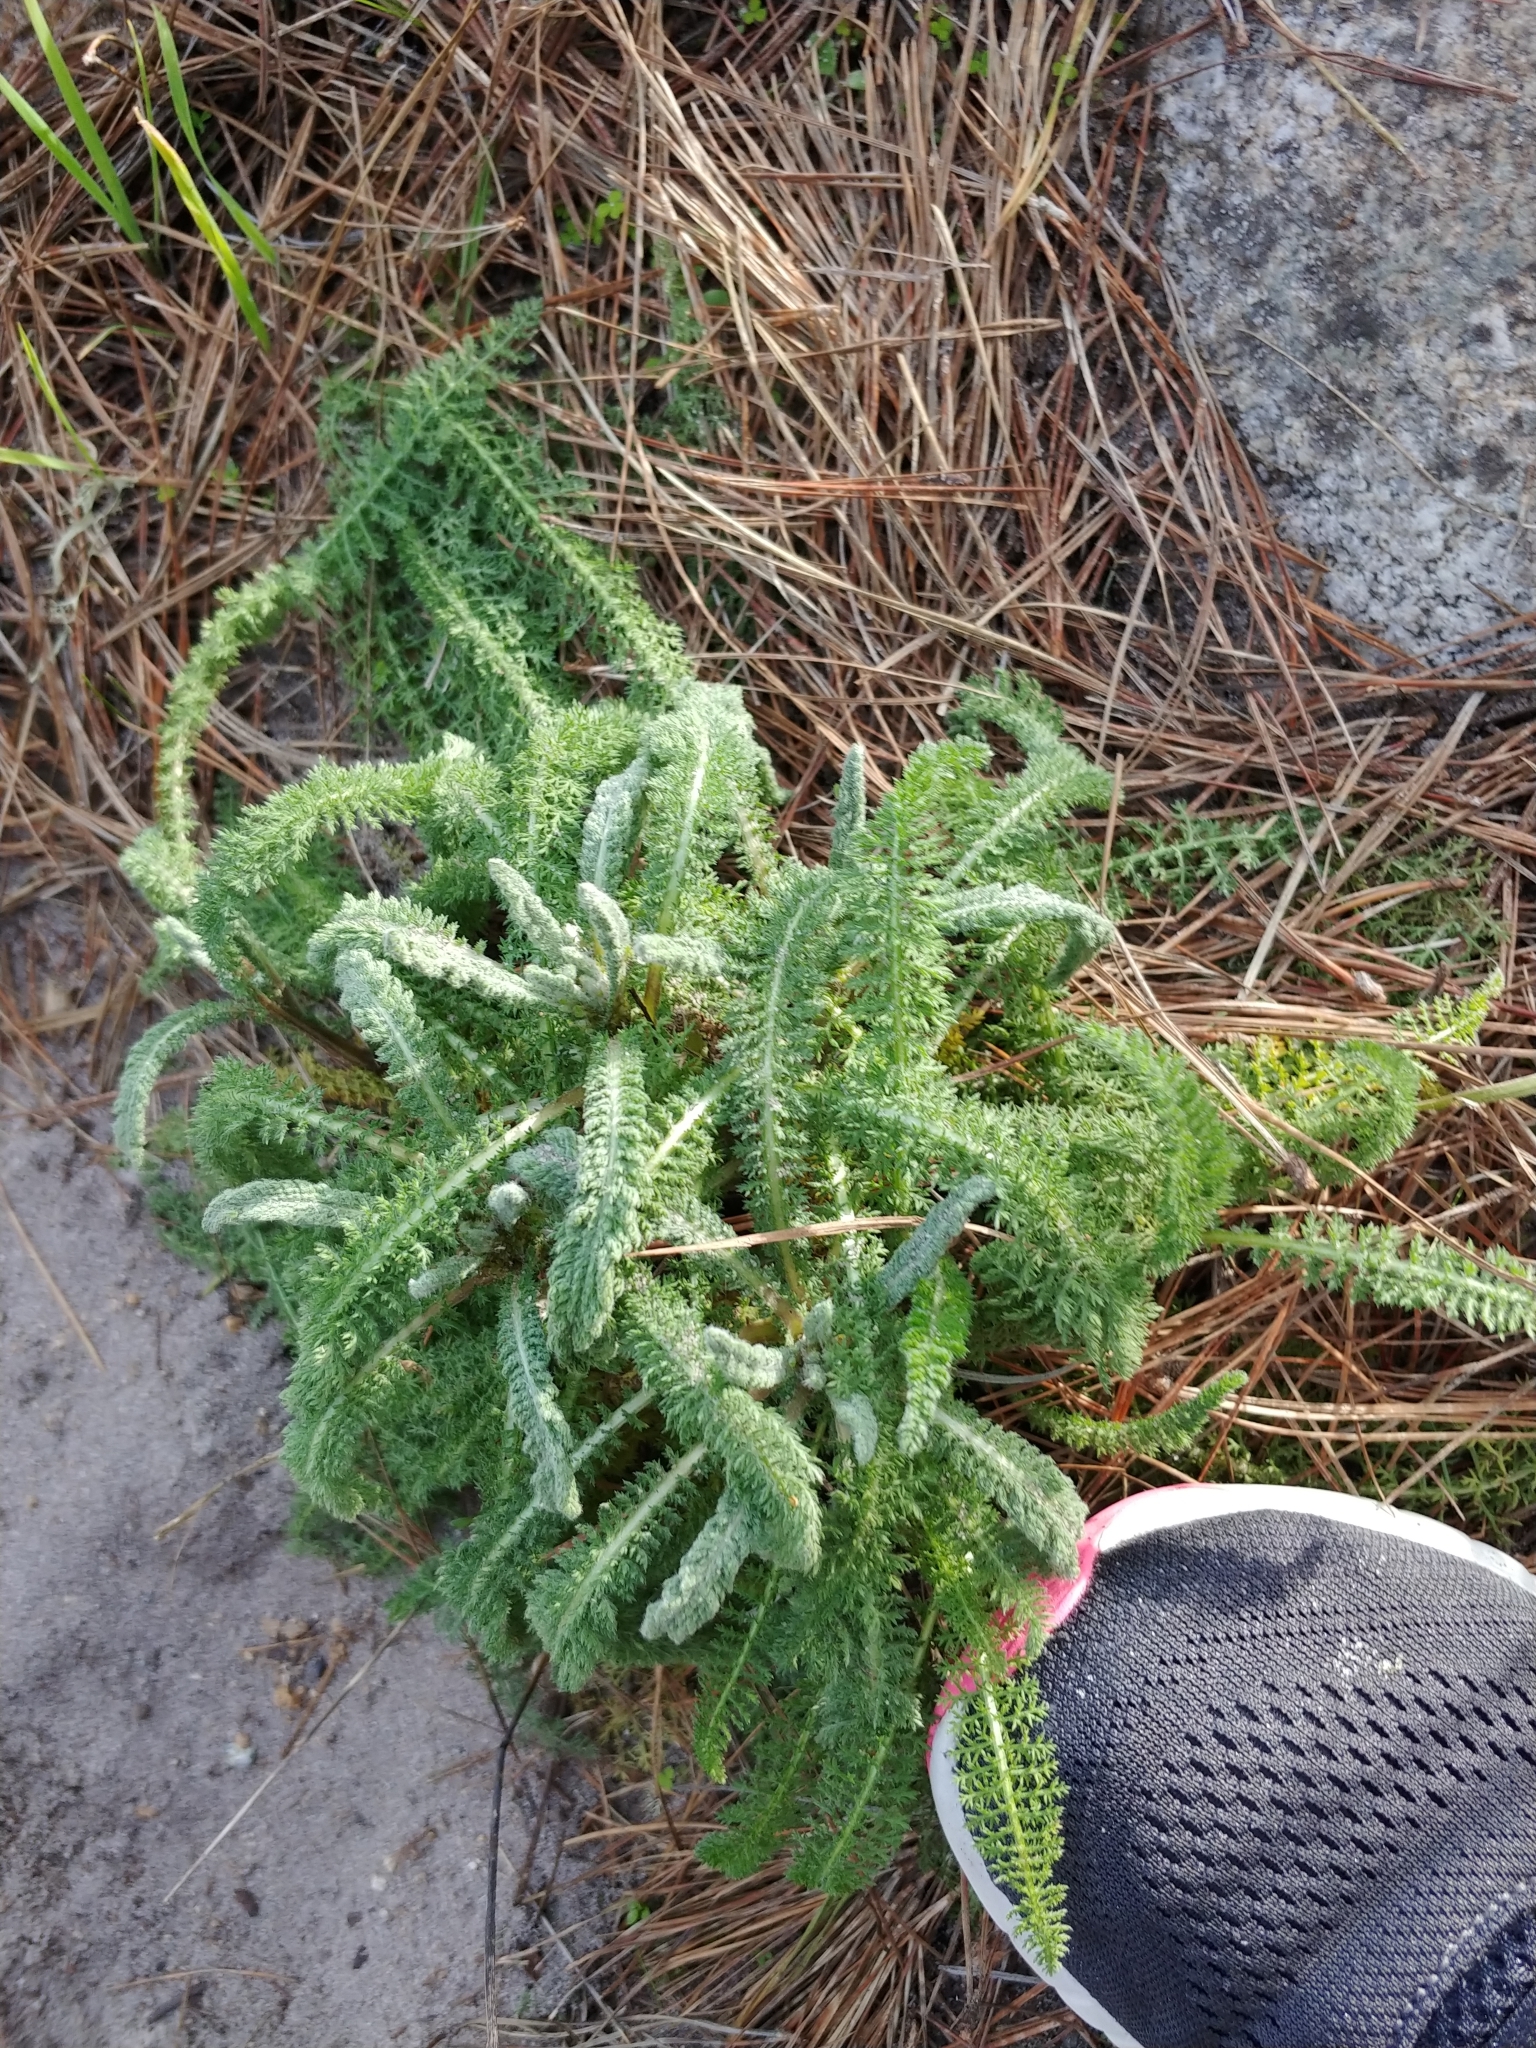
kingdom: Plantae
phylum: Tracheophyta
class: Magnoliopsida
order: Asterales
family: Asteraceae
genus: Achillea
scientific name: Achillea millefolium
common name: Yarrow
